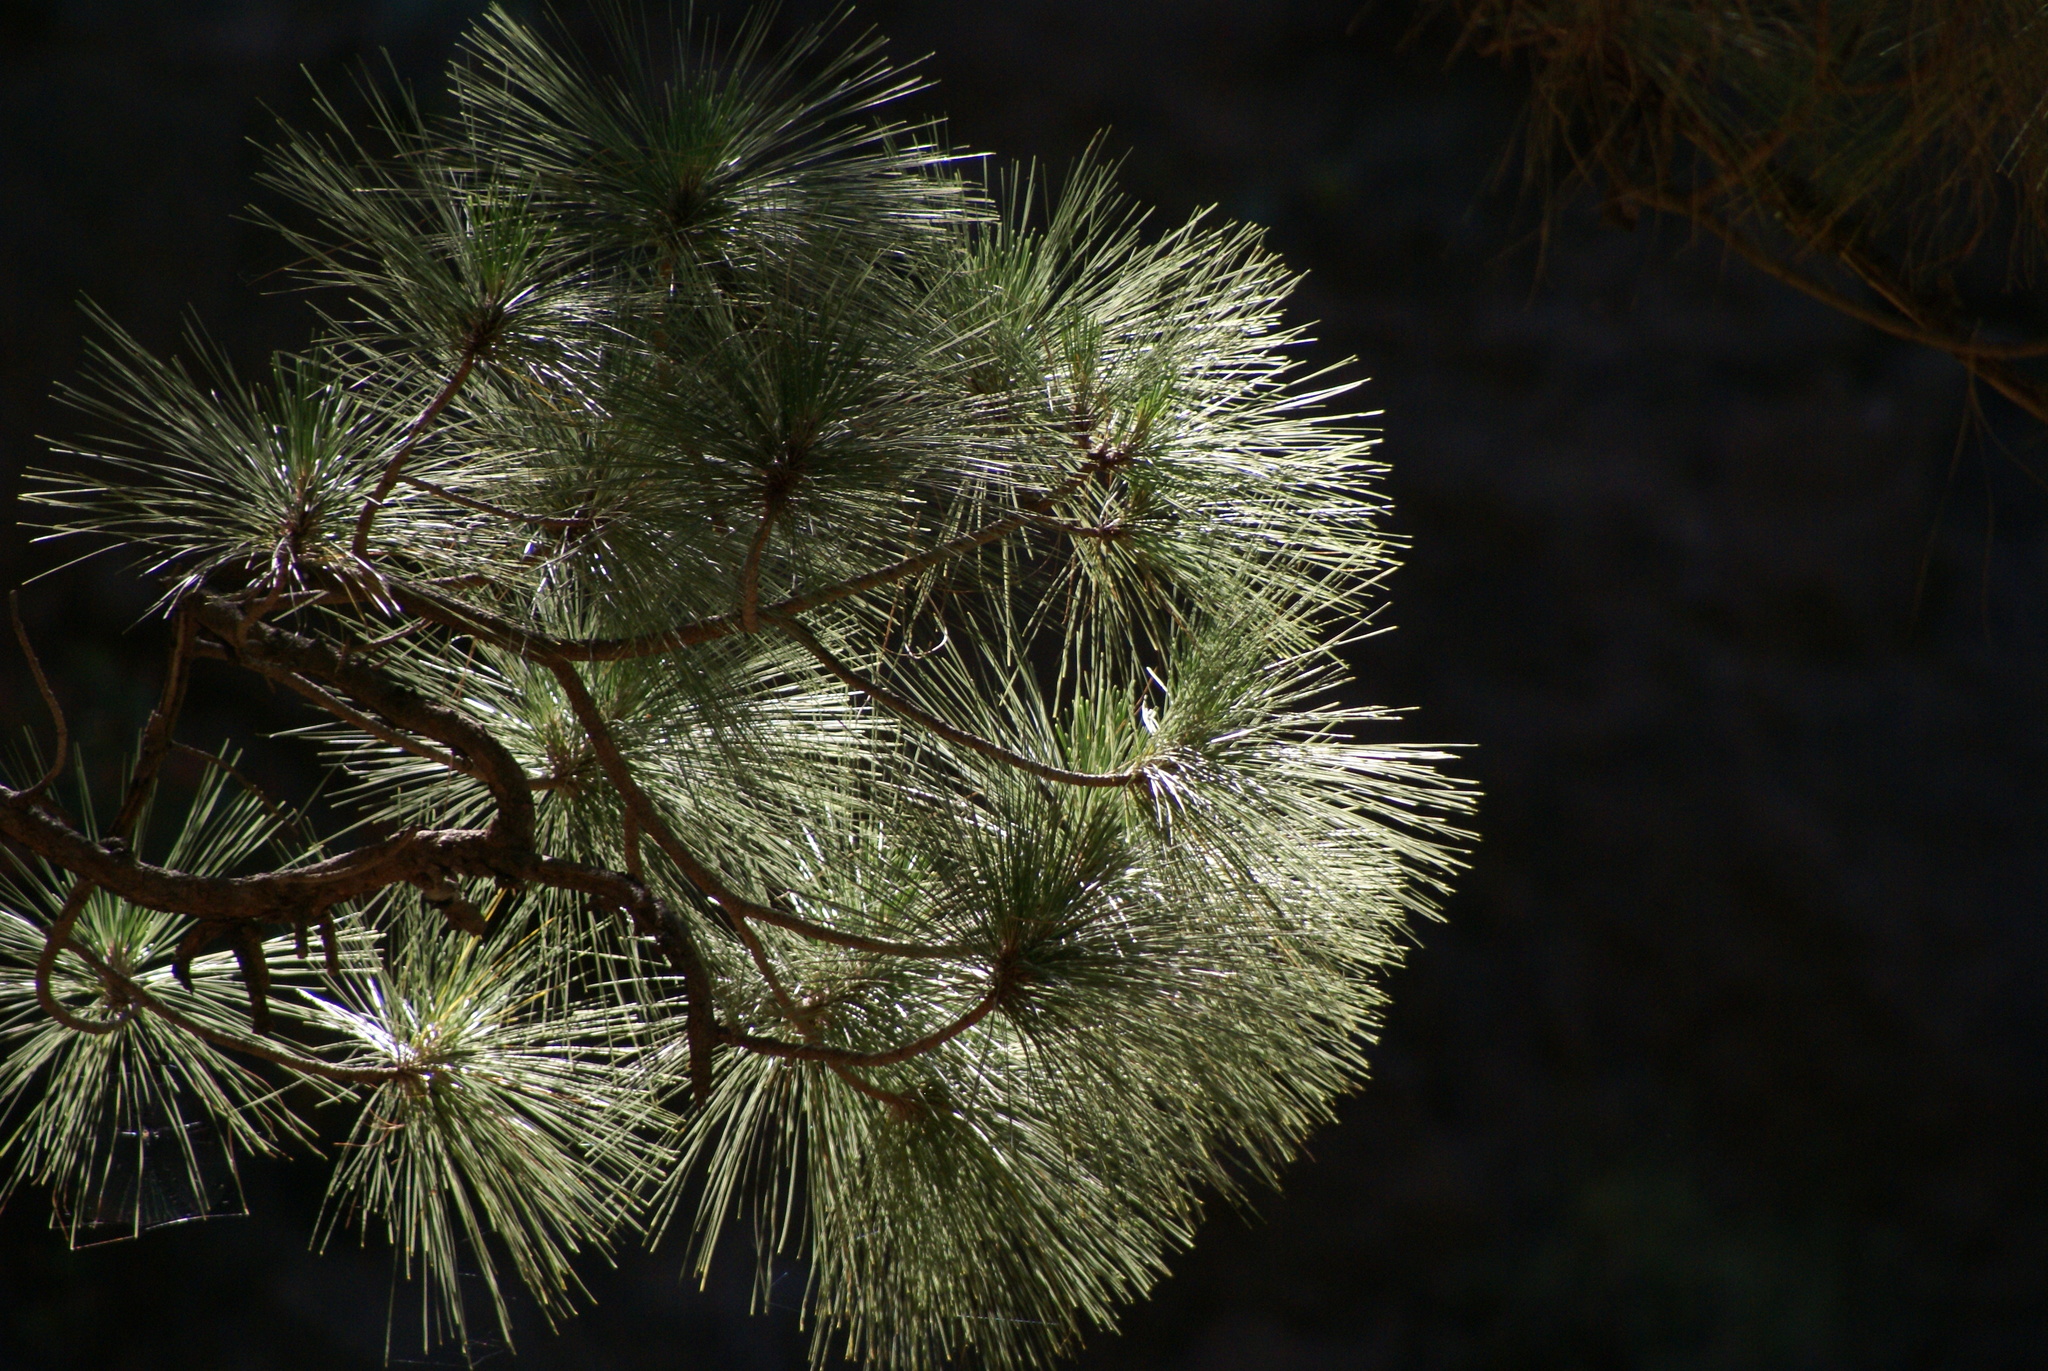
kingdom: Plantae
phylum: Tracheophyta
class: Pinopsida
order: Pinales
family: Pinaceae
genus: Pinus
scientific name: Pinus canariensis
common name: Canary islands pine
